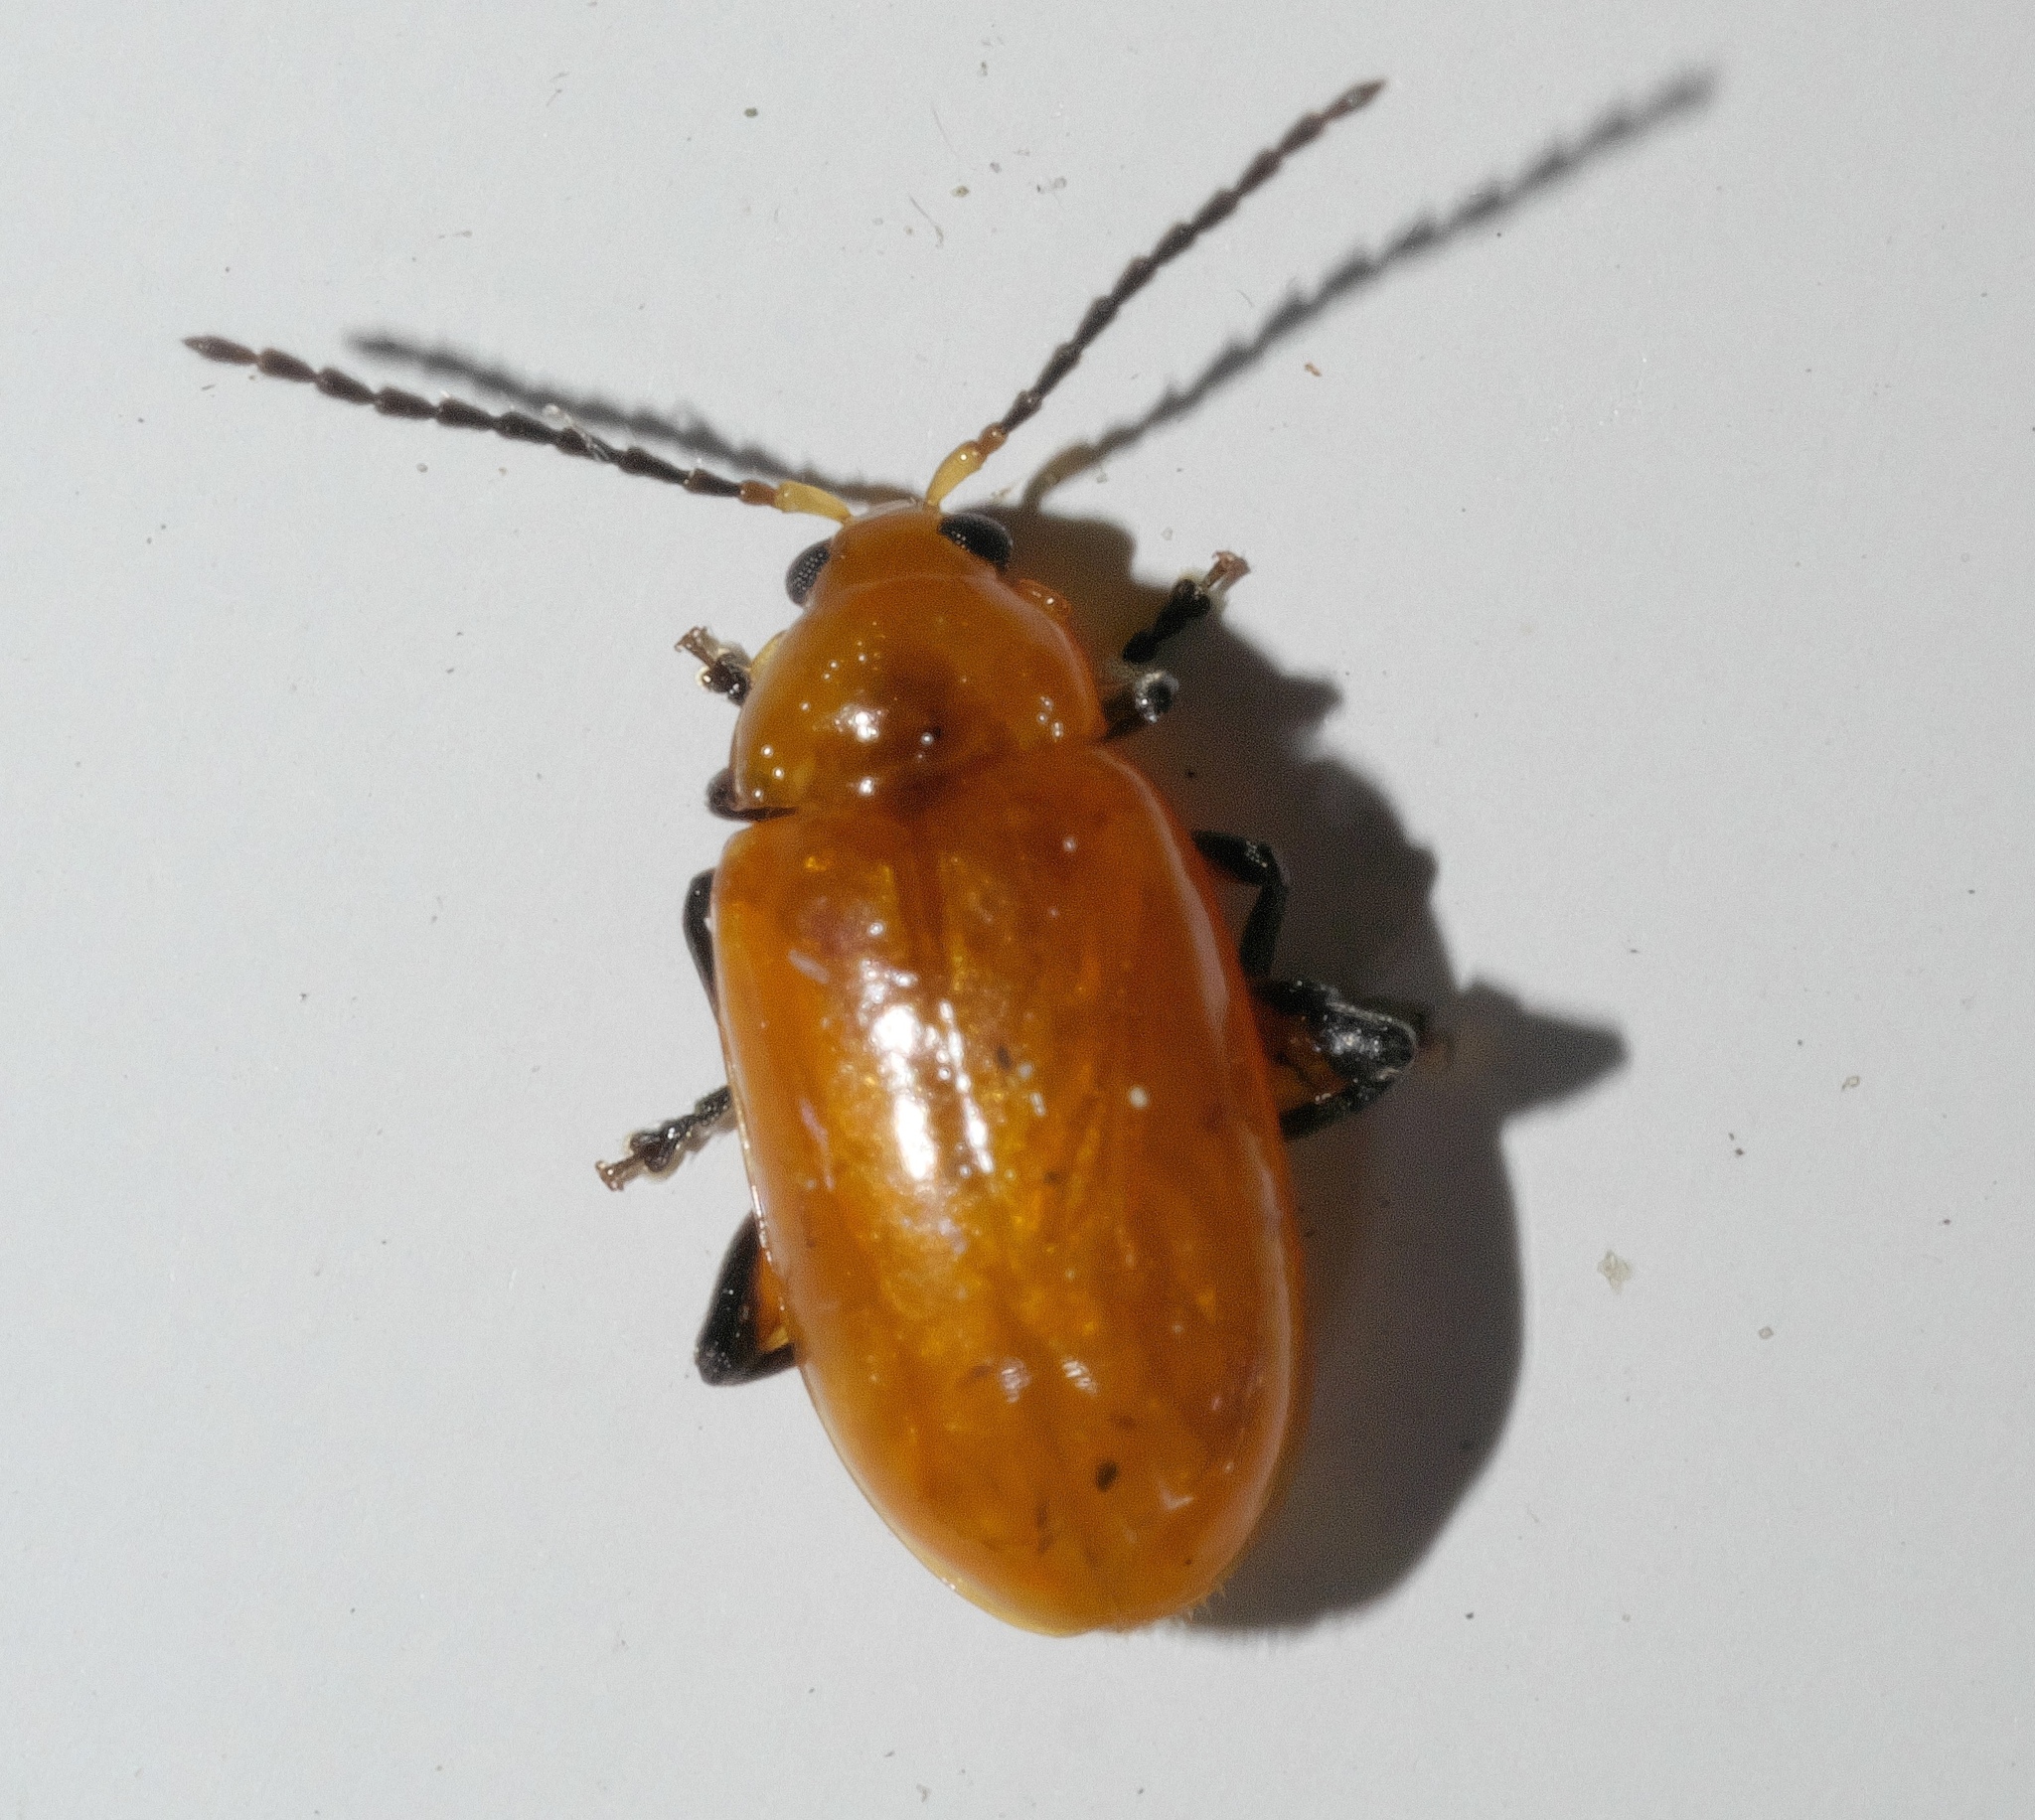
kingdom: Animalia
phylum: Arthropoda
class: Insecta
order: Coleoptera
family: Chrysomelidae
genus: Parchicola
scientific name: Parchicola tibialis
